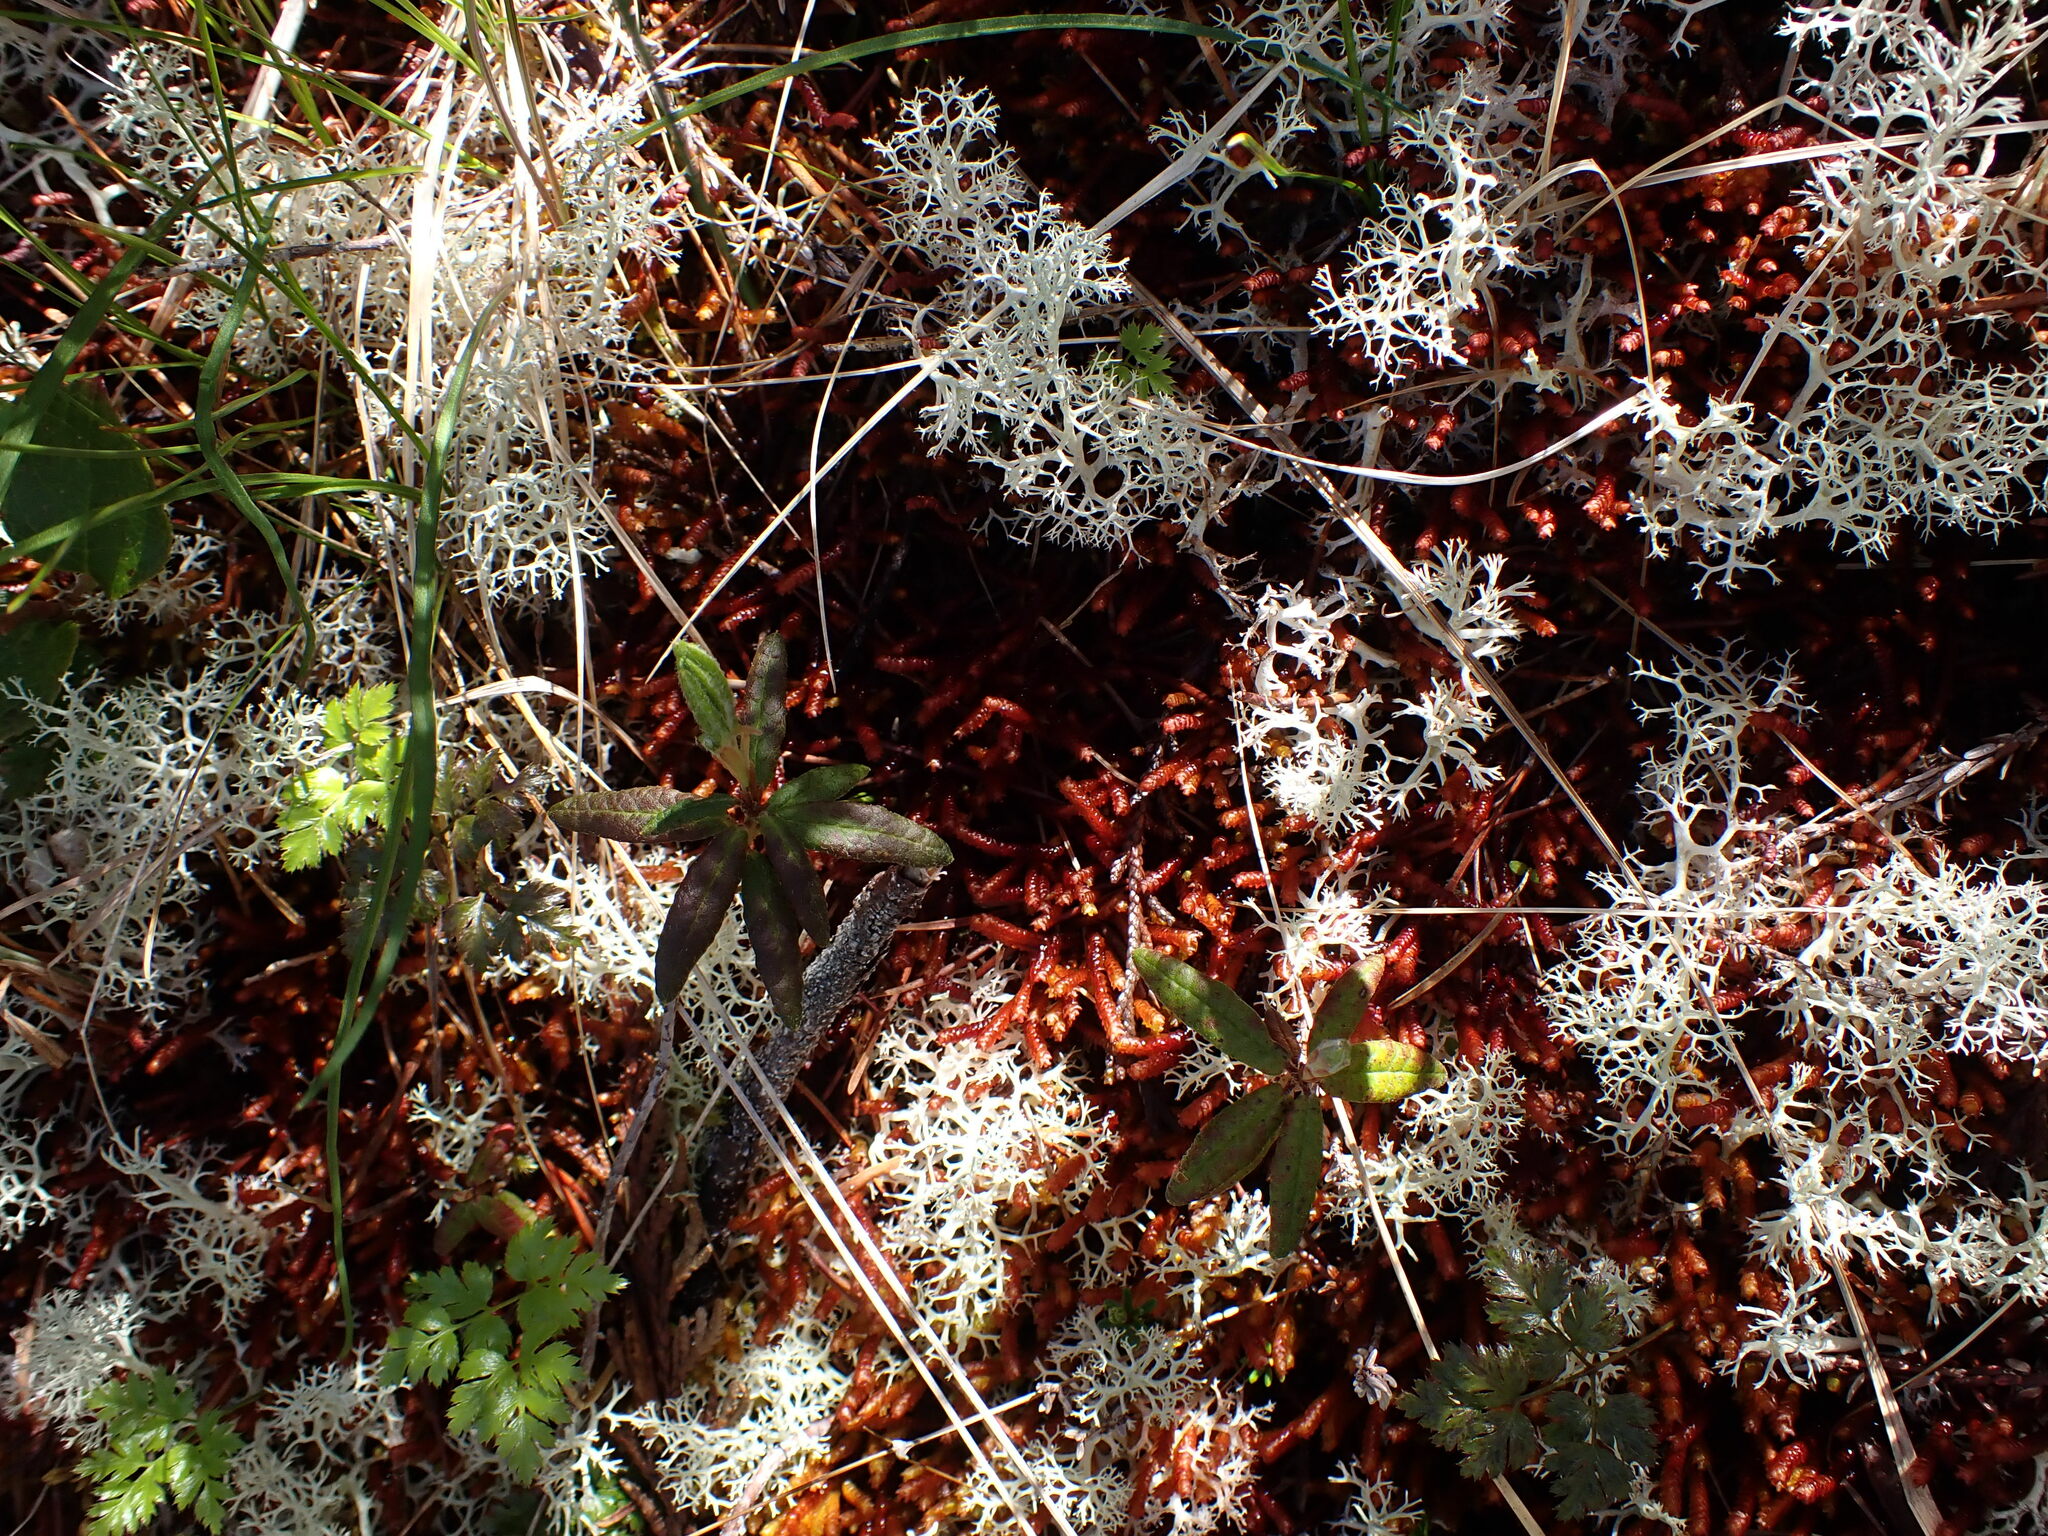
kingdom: Plantae
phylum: Marchantiophyta
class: Jungermanniopsida
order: Pleuroziales
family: Pleuroziaceae
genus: Pleurozia
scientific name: Pleurozia purpurea
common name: Purple spoonwort
